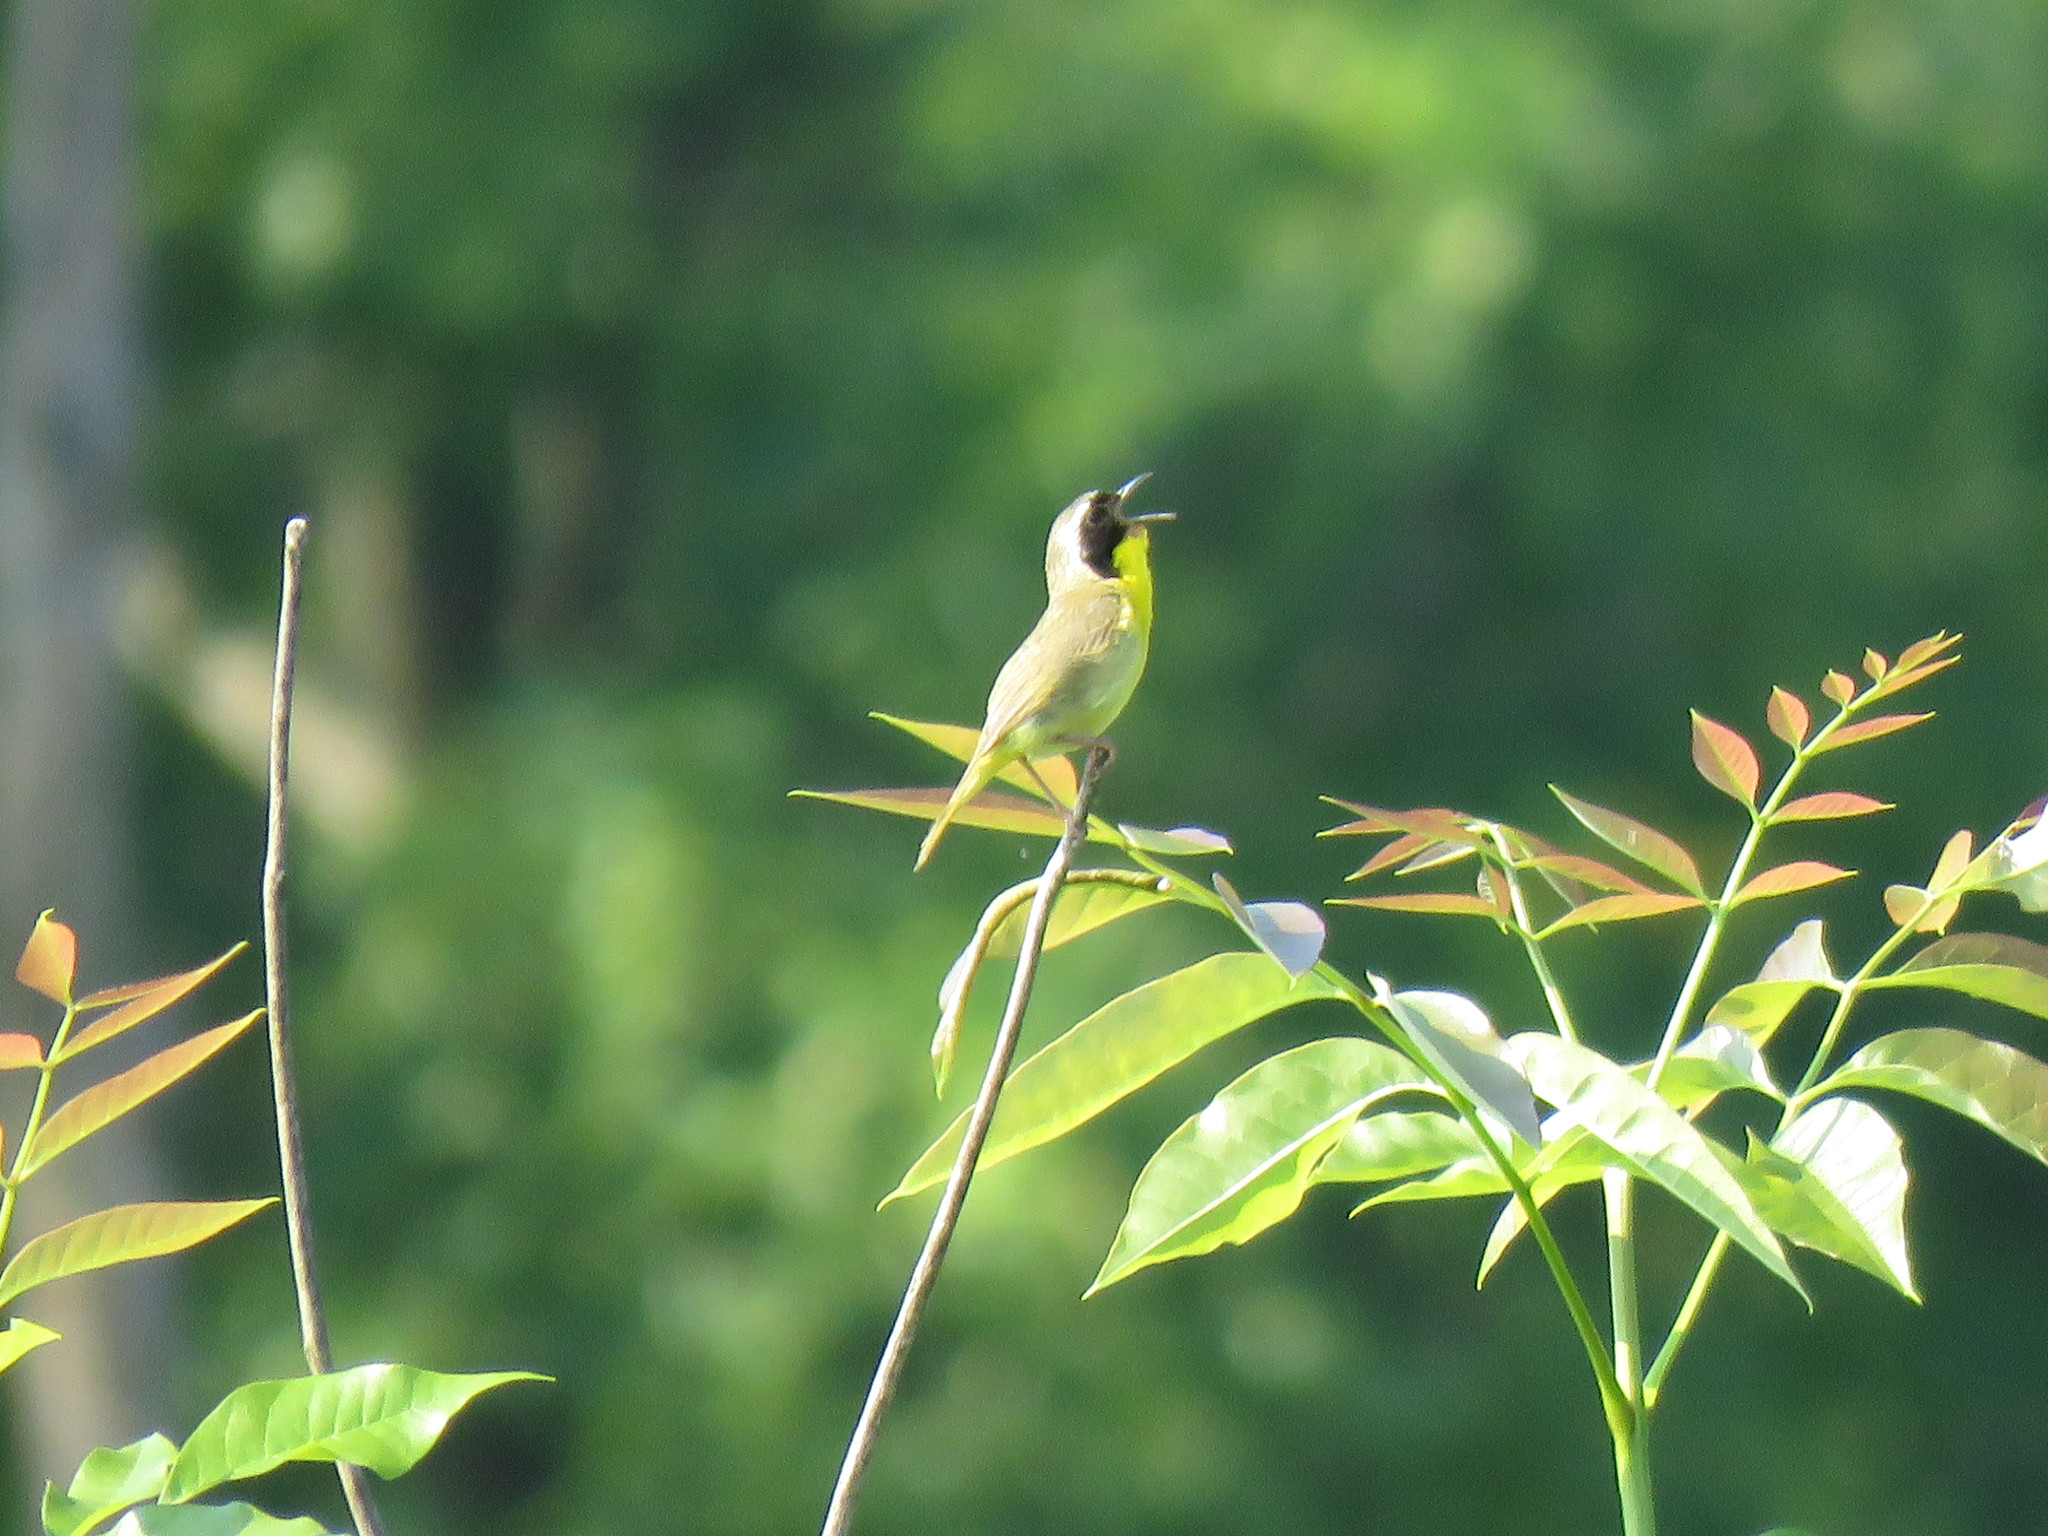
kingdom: Animalia
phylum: Chordata
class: Aves
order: Passeriformes
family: Parulidae
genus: Geothlypis
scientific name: Geothlypis trichas
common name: Common yellowthroat
